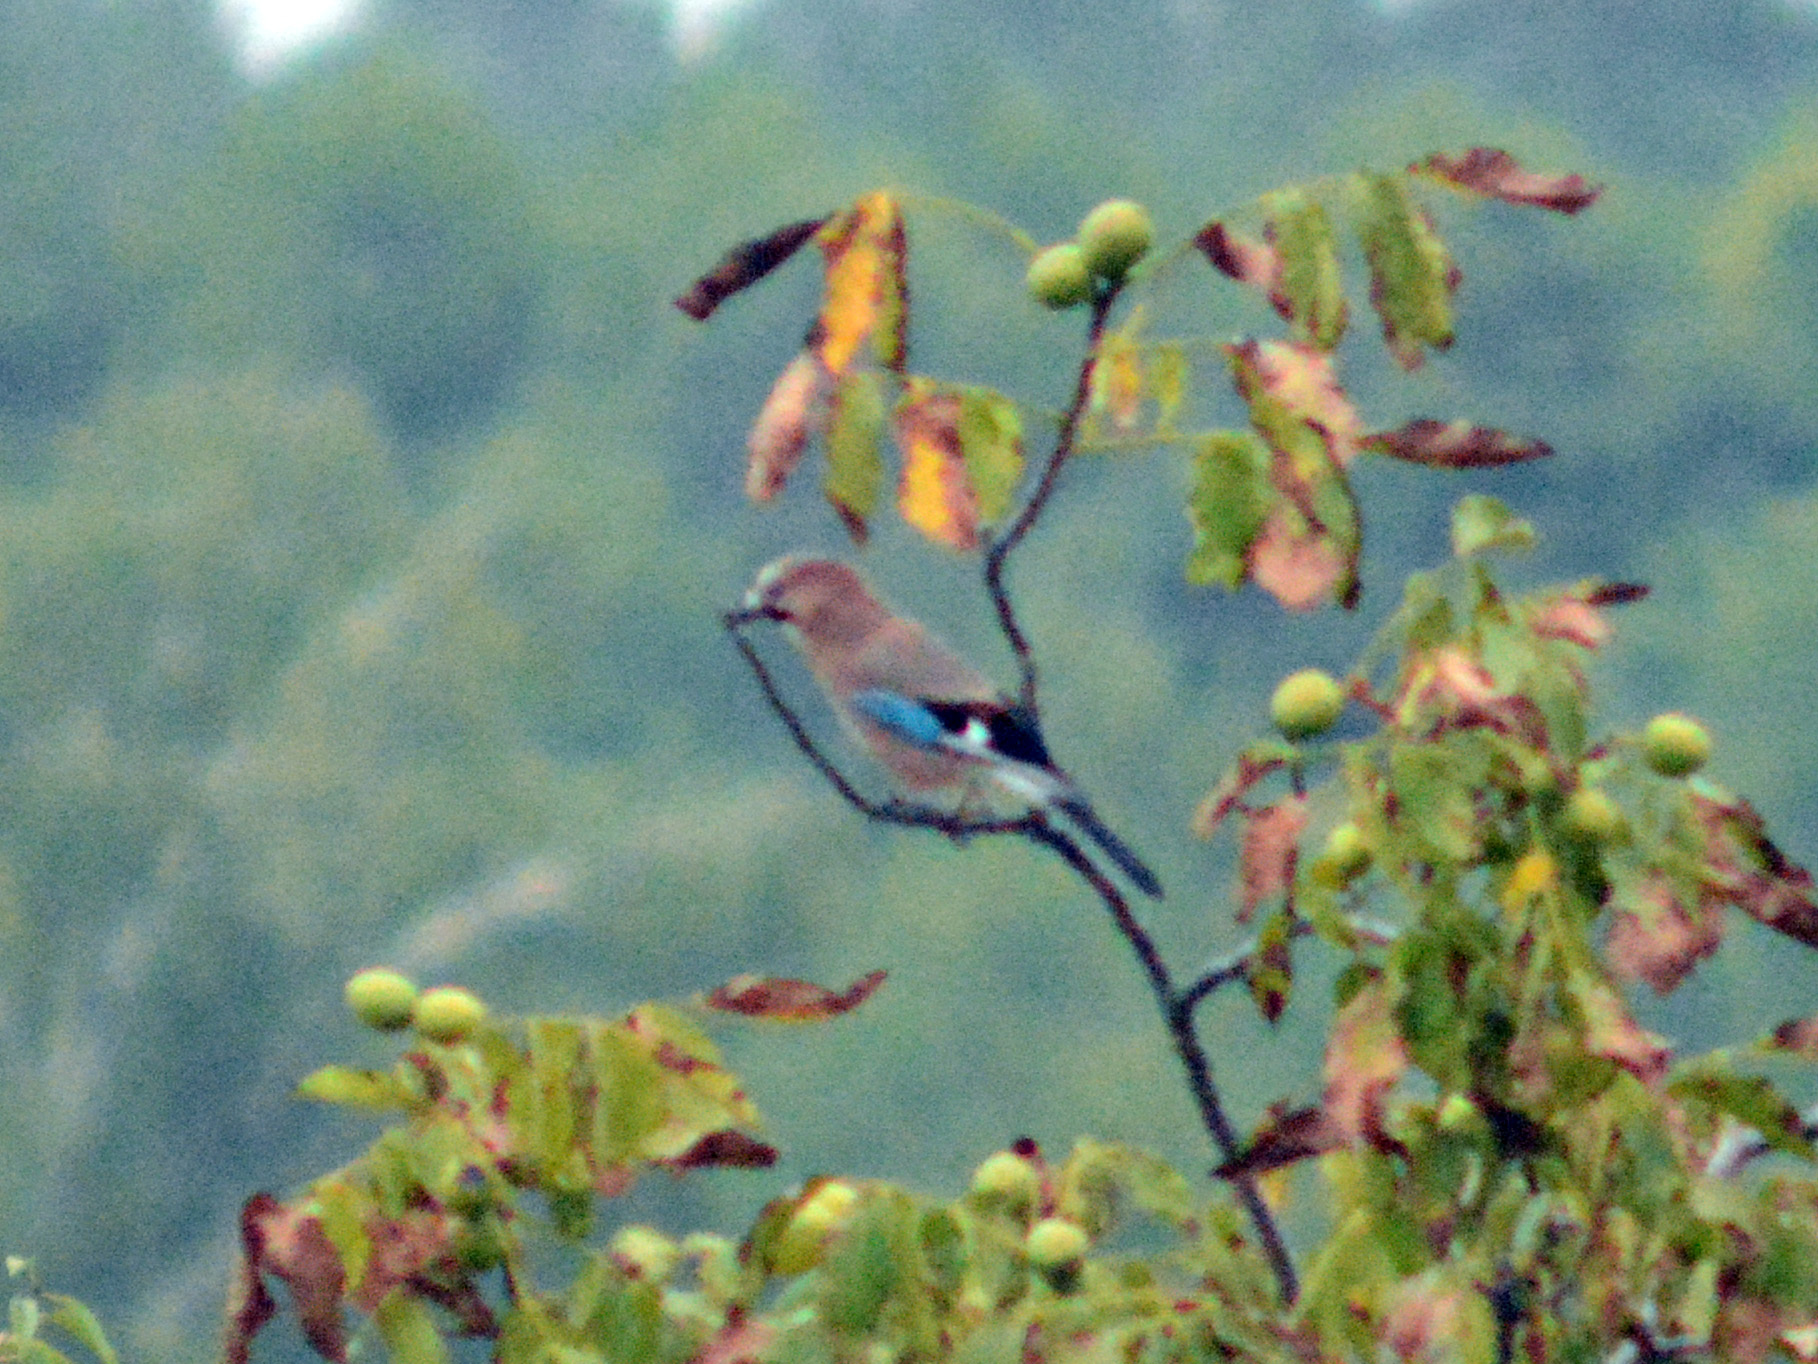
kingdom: Animalia
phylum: Chordata
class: Aves
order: Passeriformes
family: Corvidae
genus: Garrulus
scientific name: Garrulus glandarius
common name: Eurasian jay
